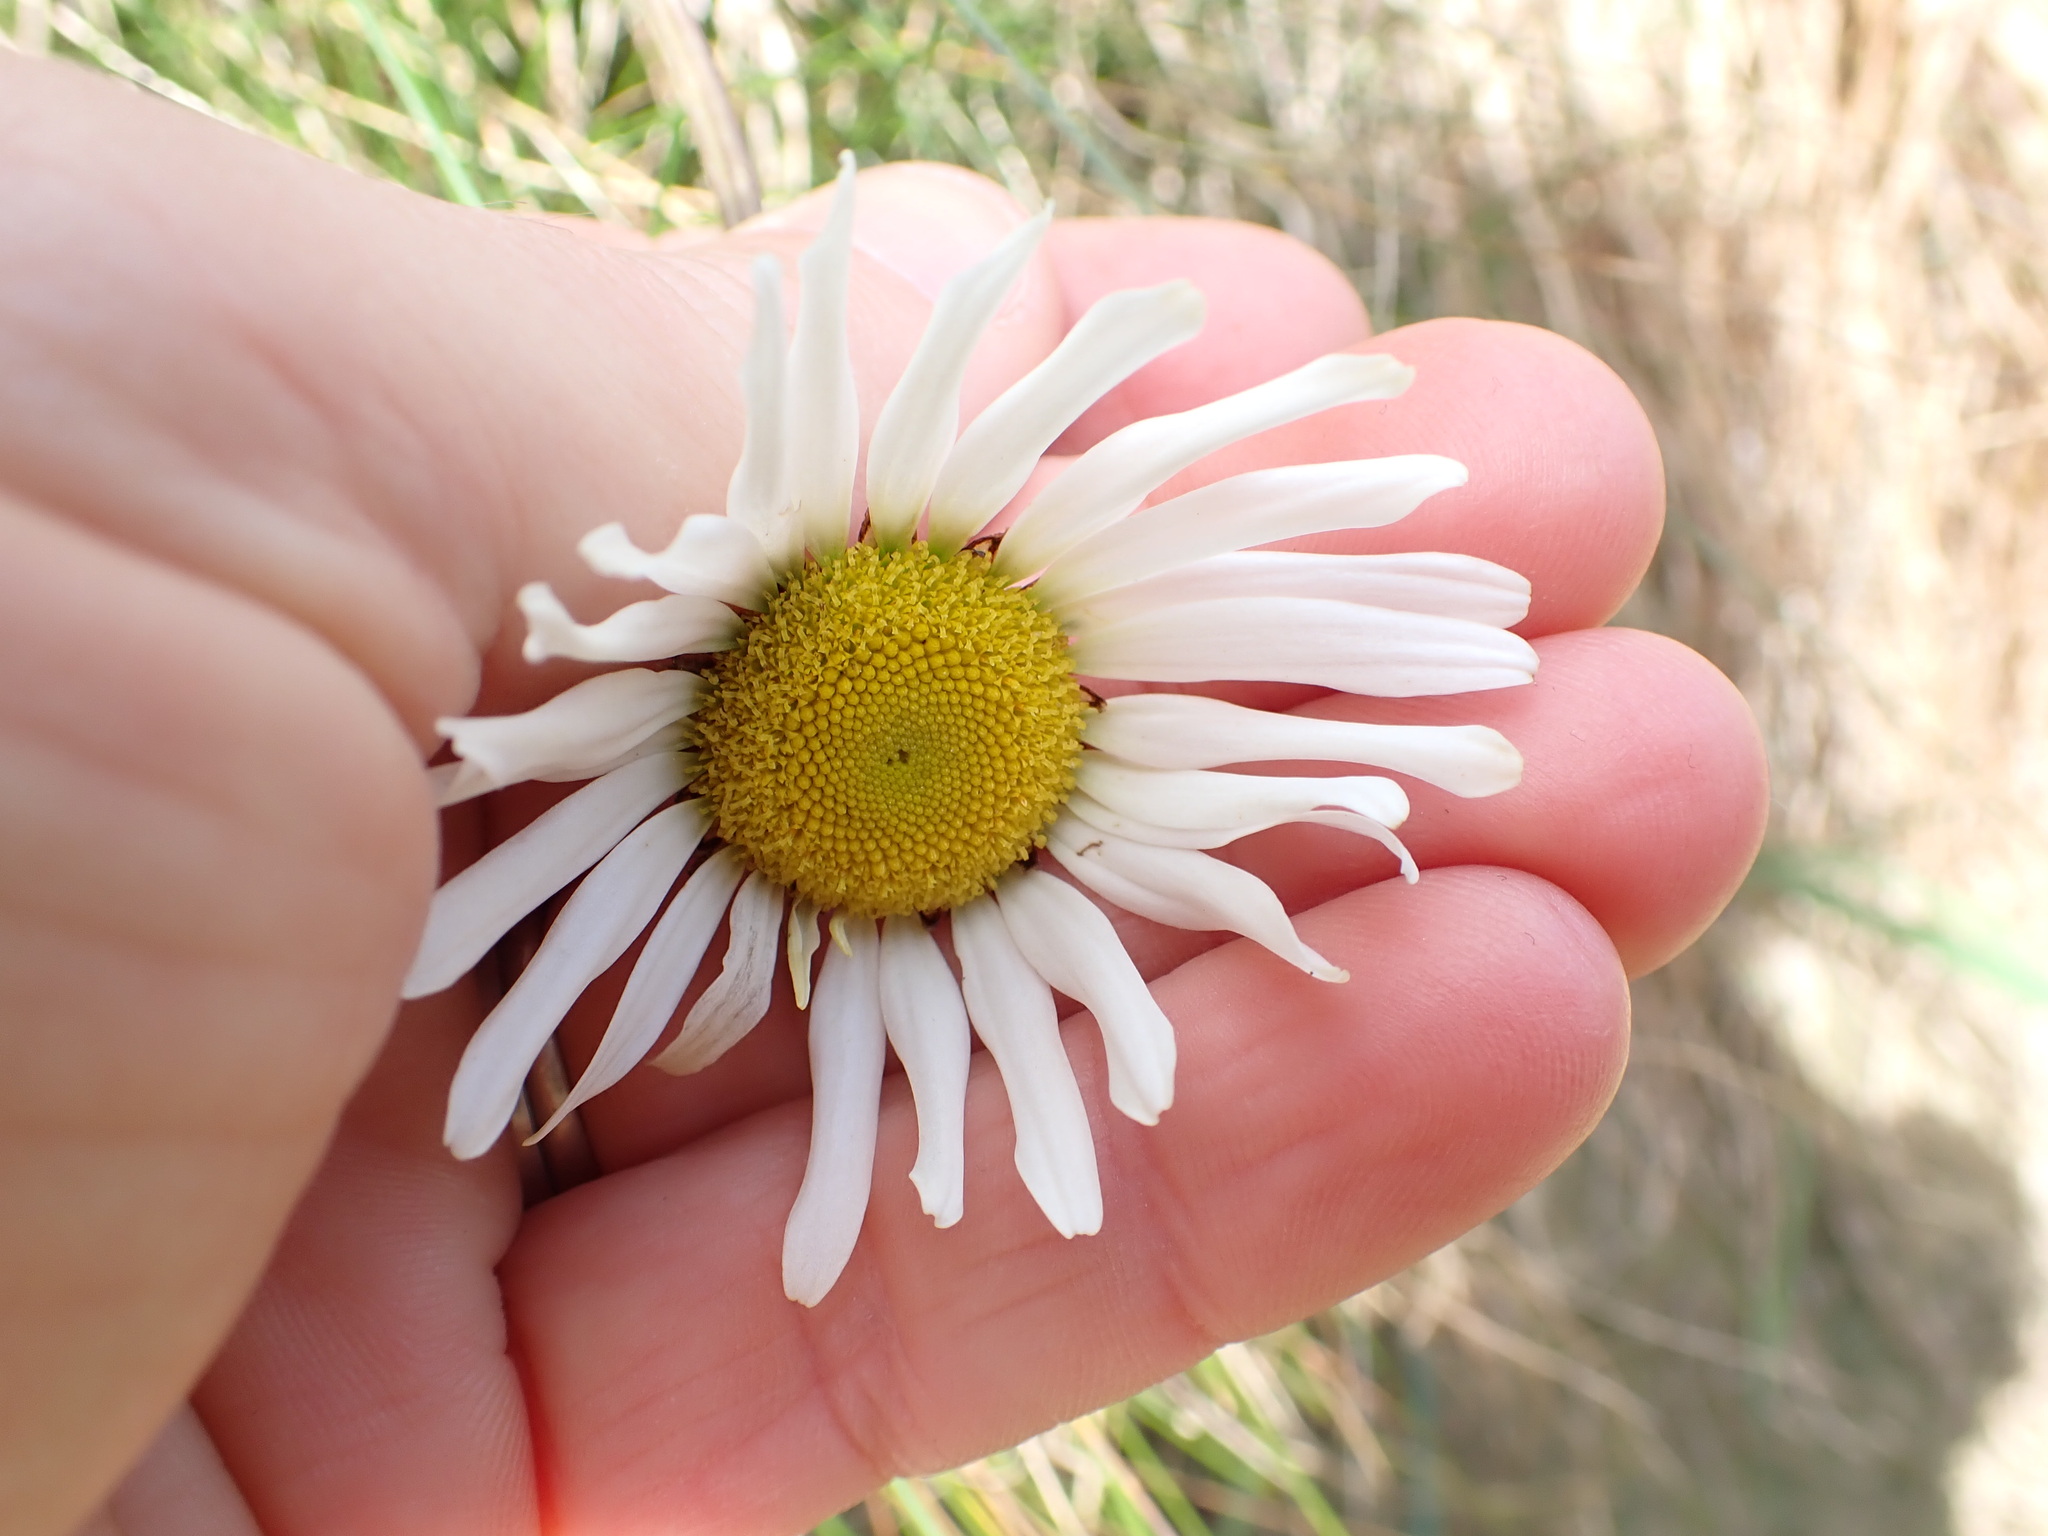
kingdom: Plantae
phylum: Tracheophyta
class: Magnoliopsida
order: Asterales
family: Asteraceae
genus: Leucanthemum
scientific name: Leucanthemum vulgare
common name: Oxeye daisy
